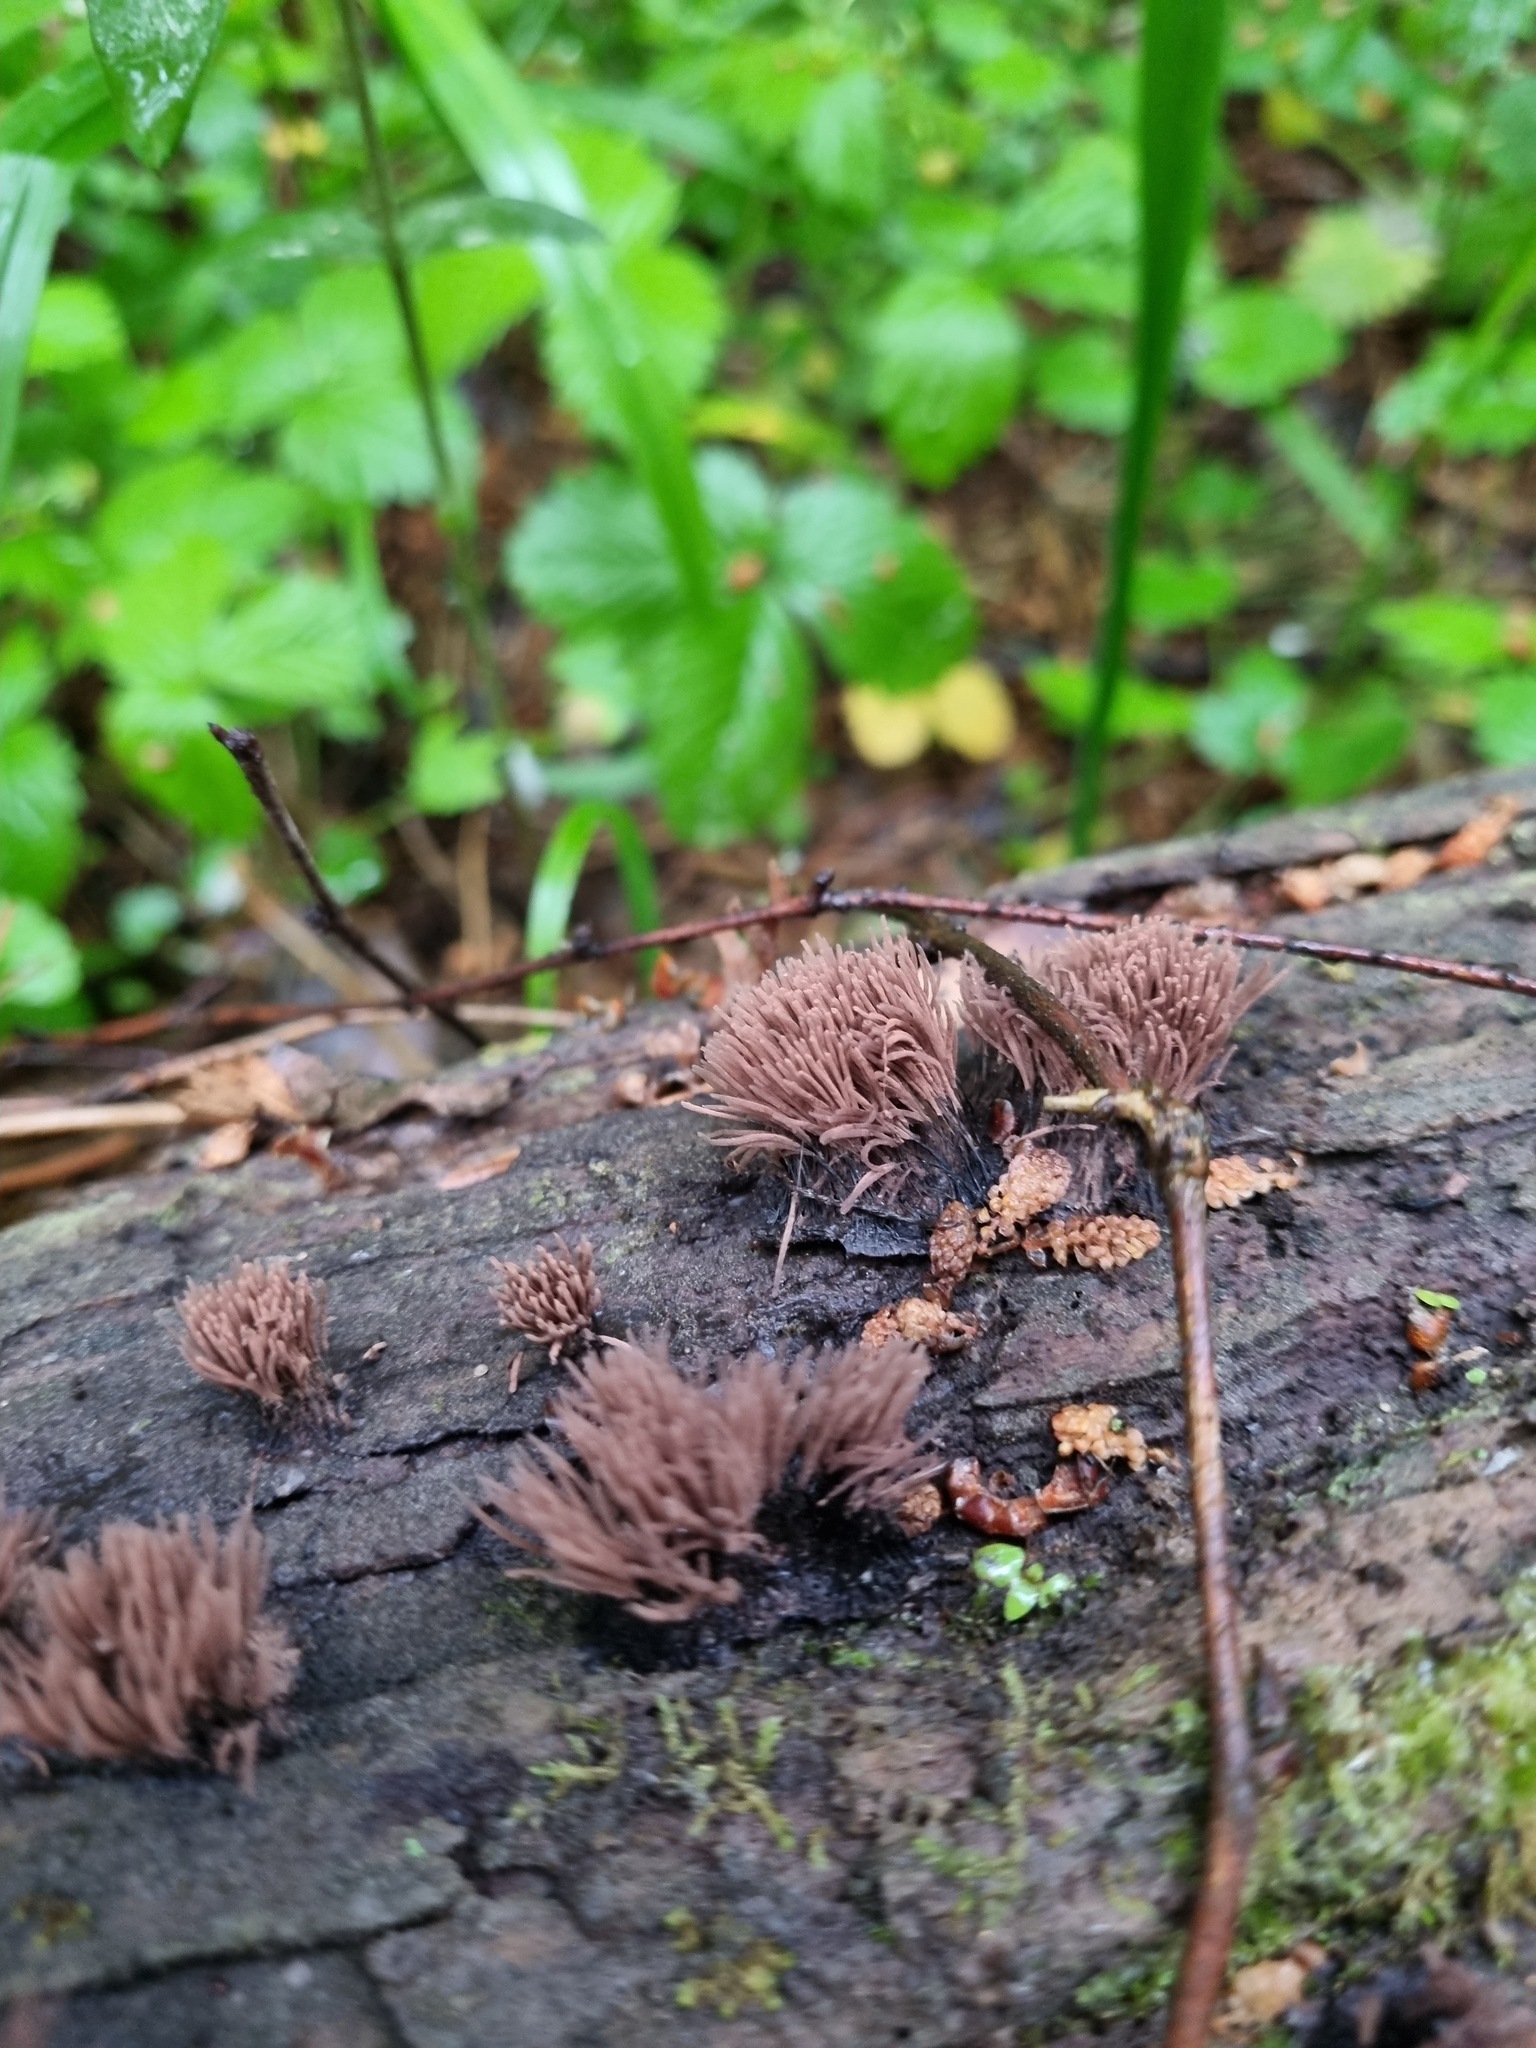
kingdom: Protozoa
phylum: Mycetozoa
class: Myxomycetes
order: Stemonitidales
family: Stemonitidaceae
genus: Stemonitis
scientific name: Stemonitis splendens
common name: Chocolate tube slime
